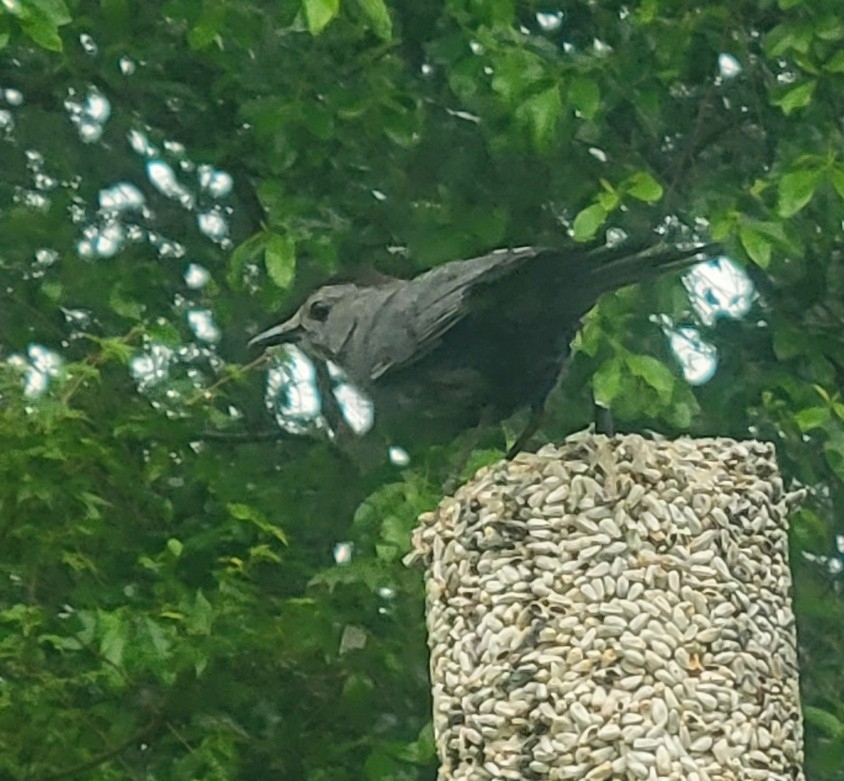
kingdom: Animalia
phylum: Chordata
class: Aves
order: Passeriformes
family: Mimidae
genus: Dumetella
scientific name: Dumetella carolinensis
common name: Gray catbird
